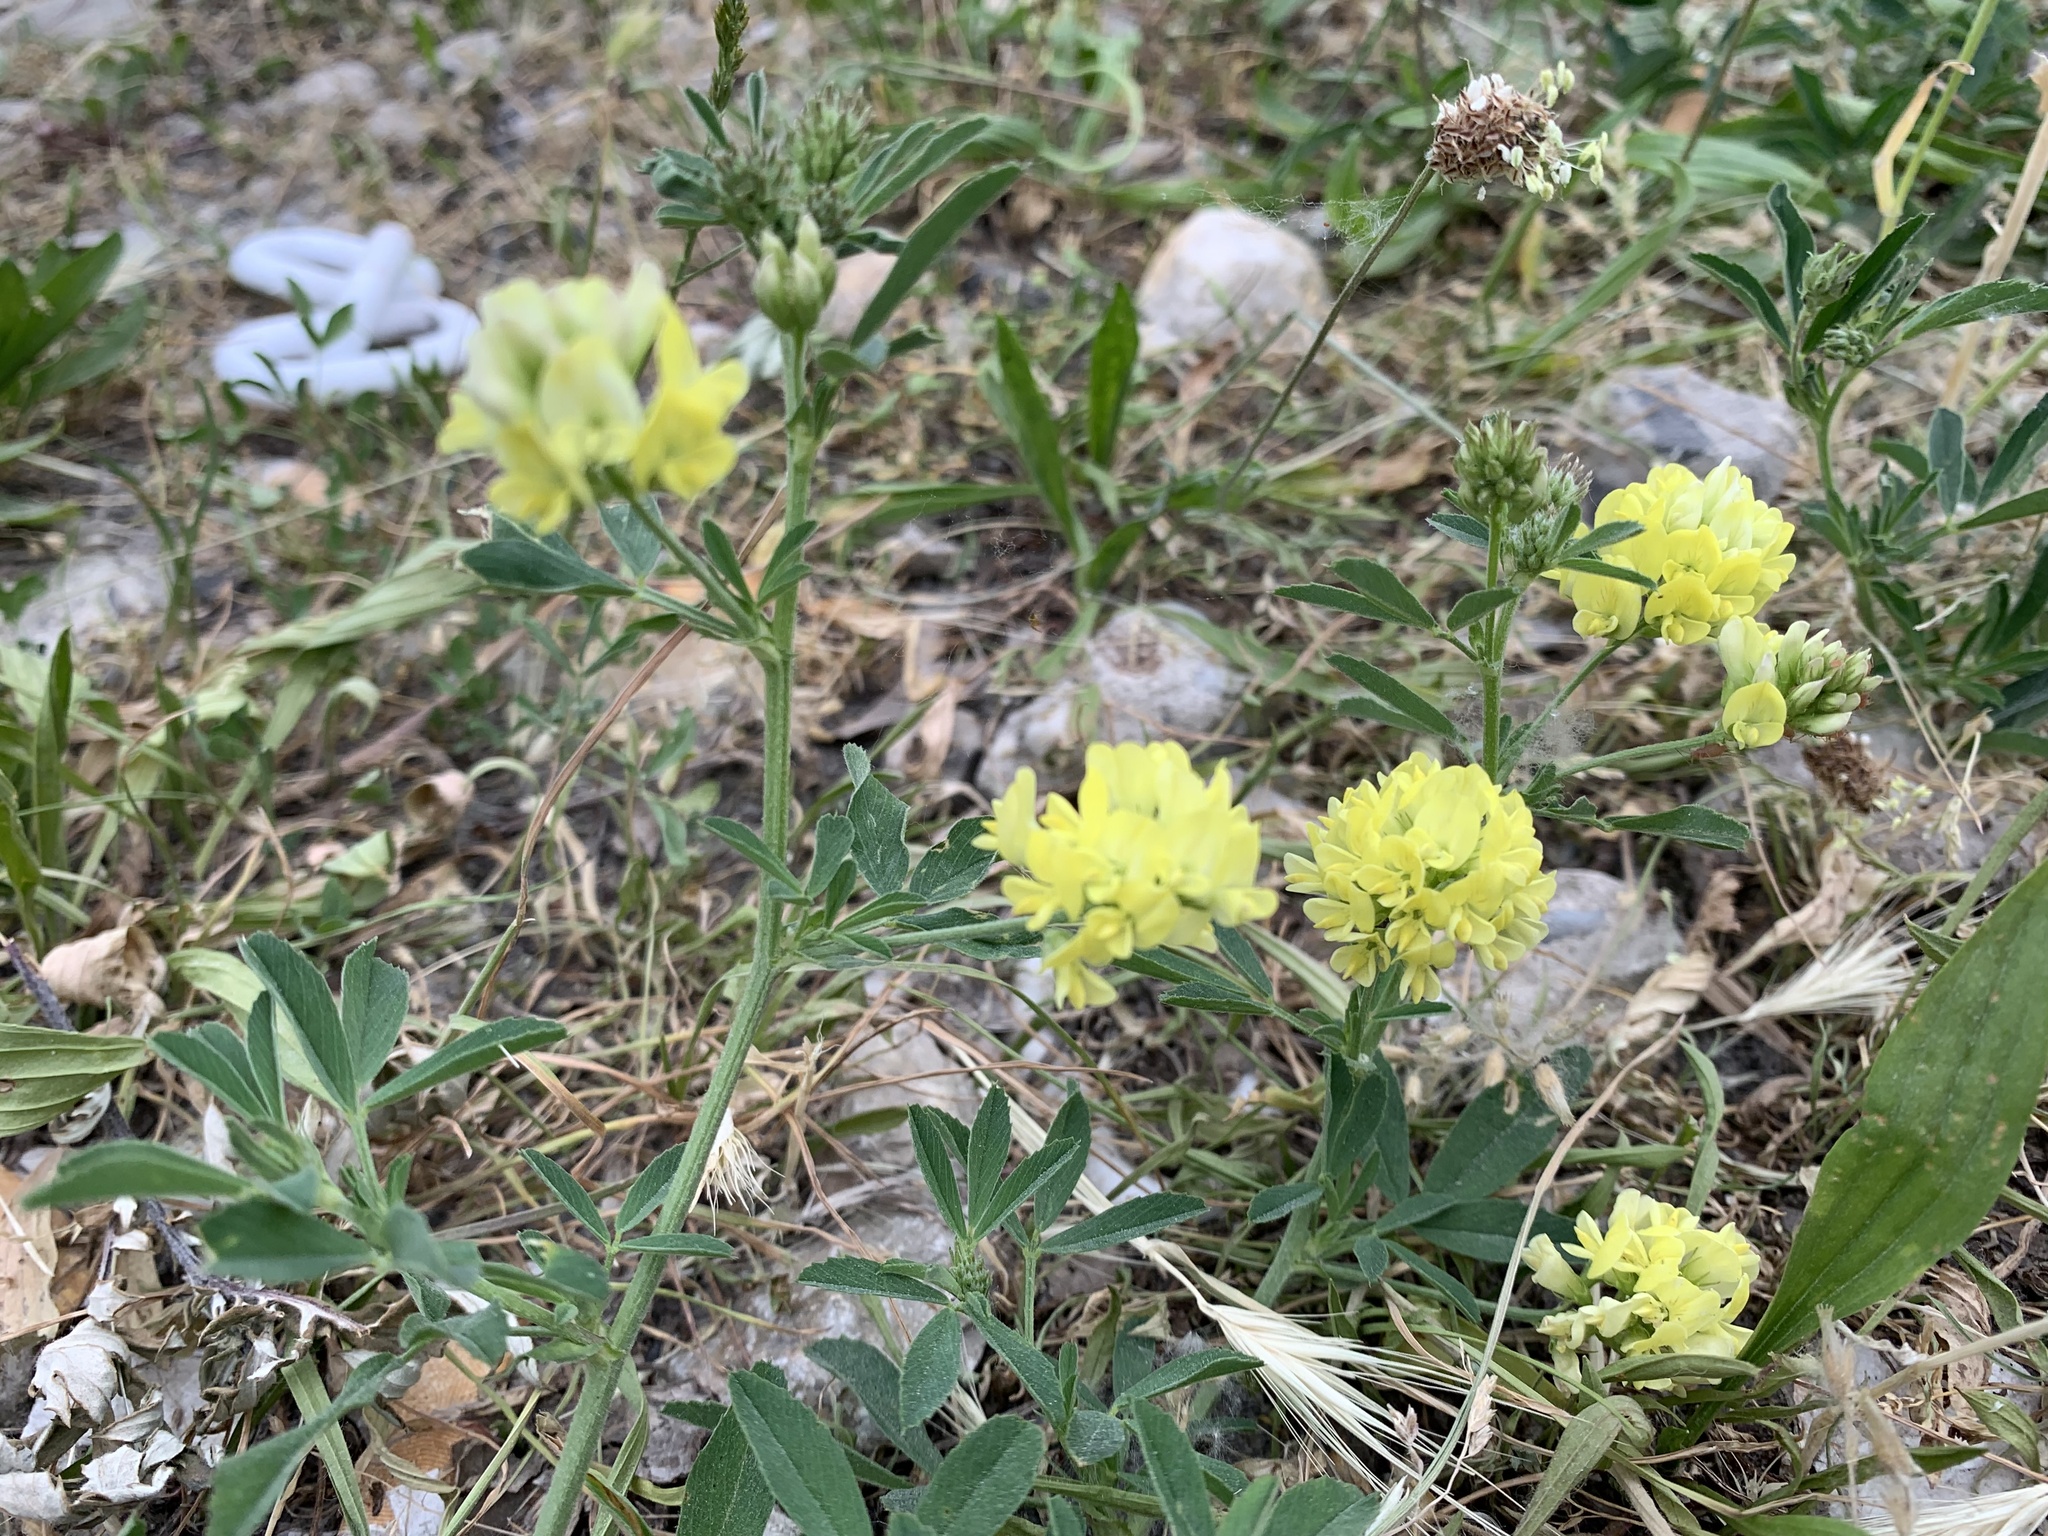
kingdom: Plantae
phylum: Tracheophyta
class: Magnoliopsida
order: Fabales
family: Fabaceae
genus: Medicago
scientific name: Medicago falcata
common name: Sickle medick
